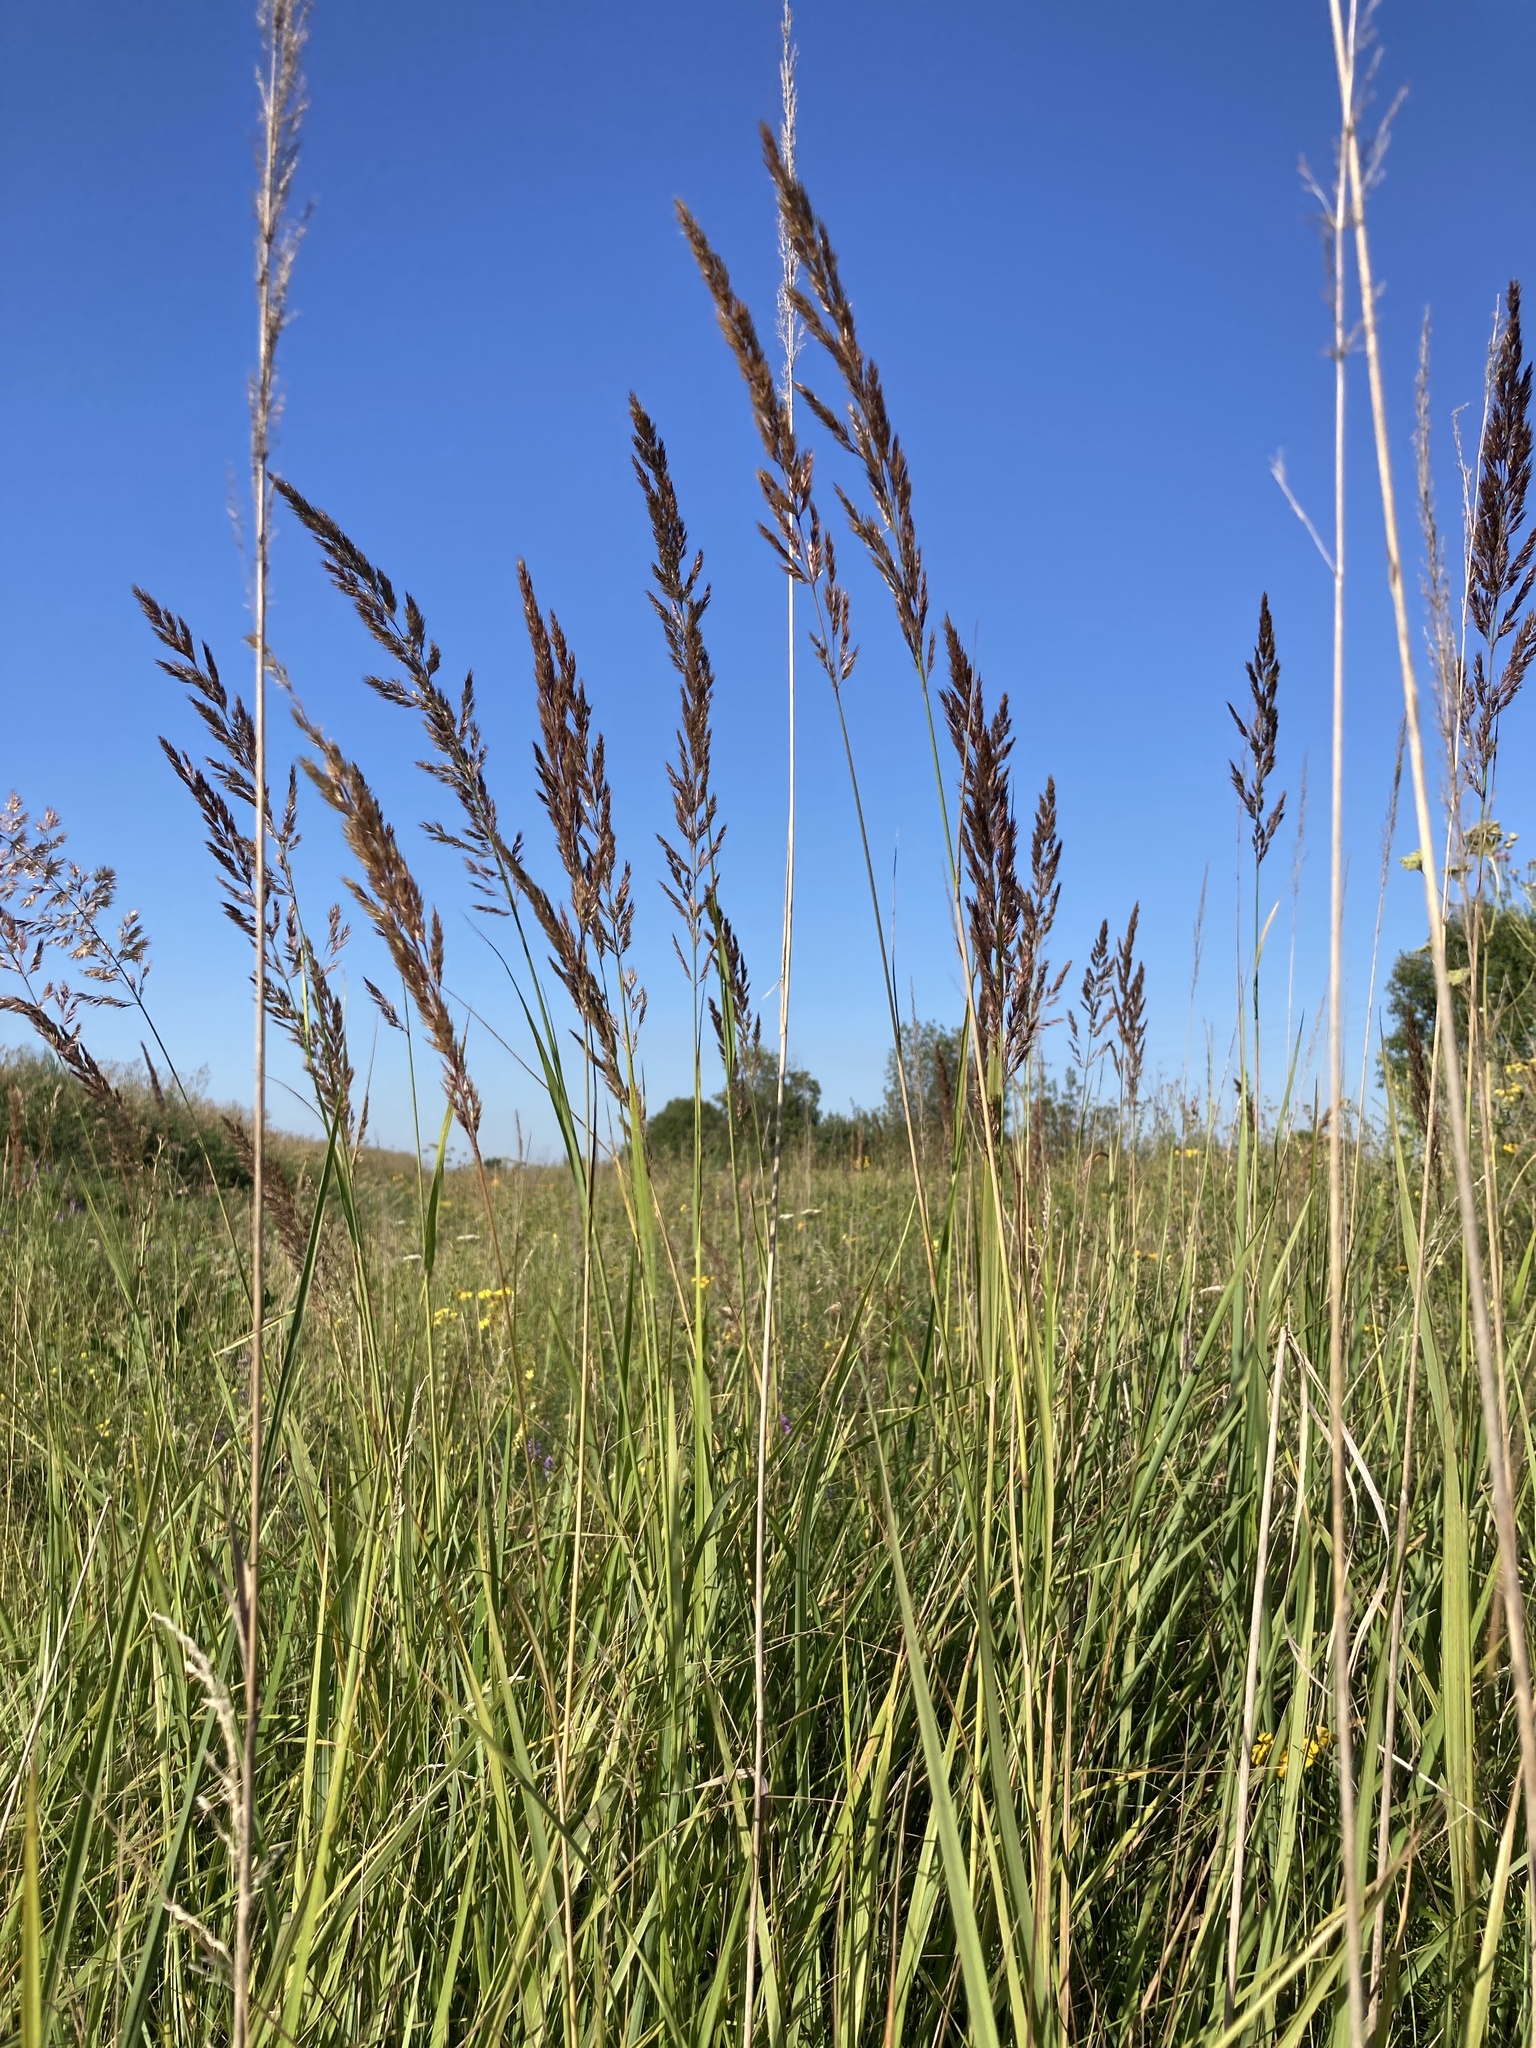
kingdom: Plantae
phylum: Tracheophyta
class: Liliopsida
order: Poales
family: Poaceae
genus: Calamagrostis
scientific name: Calamagrostis epigejos
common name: Wood small-reed
